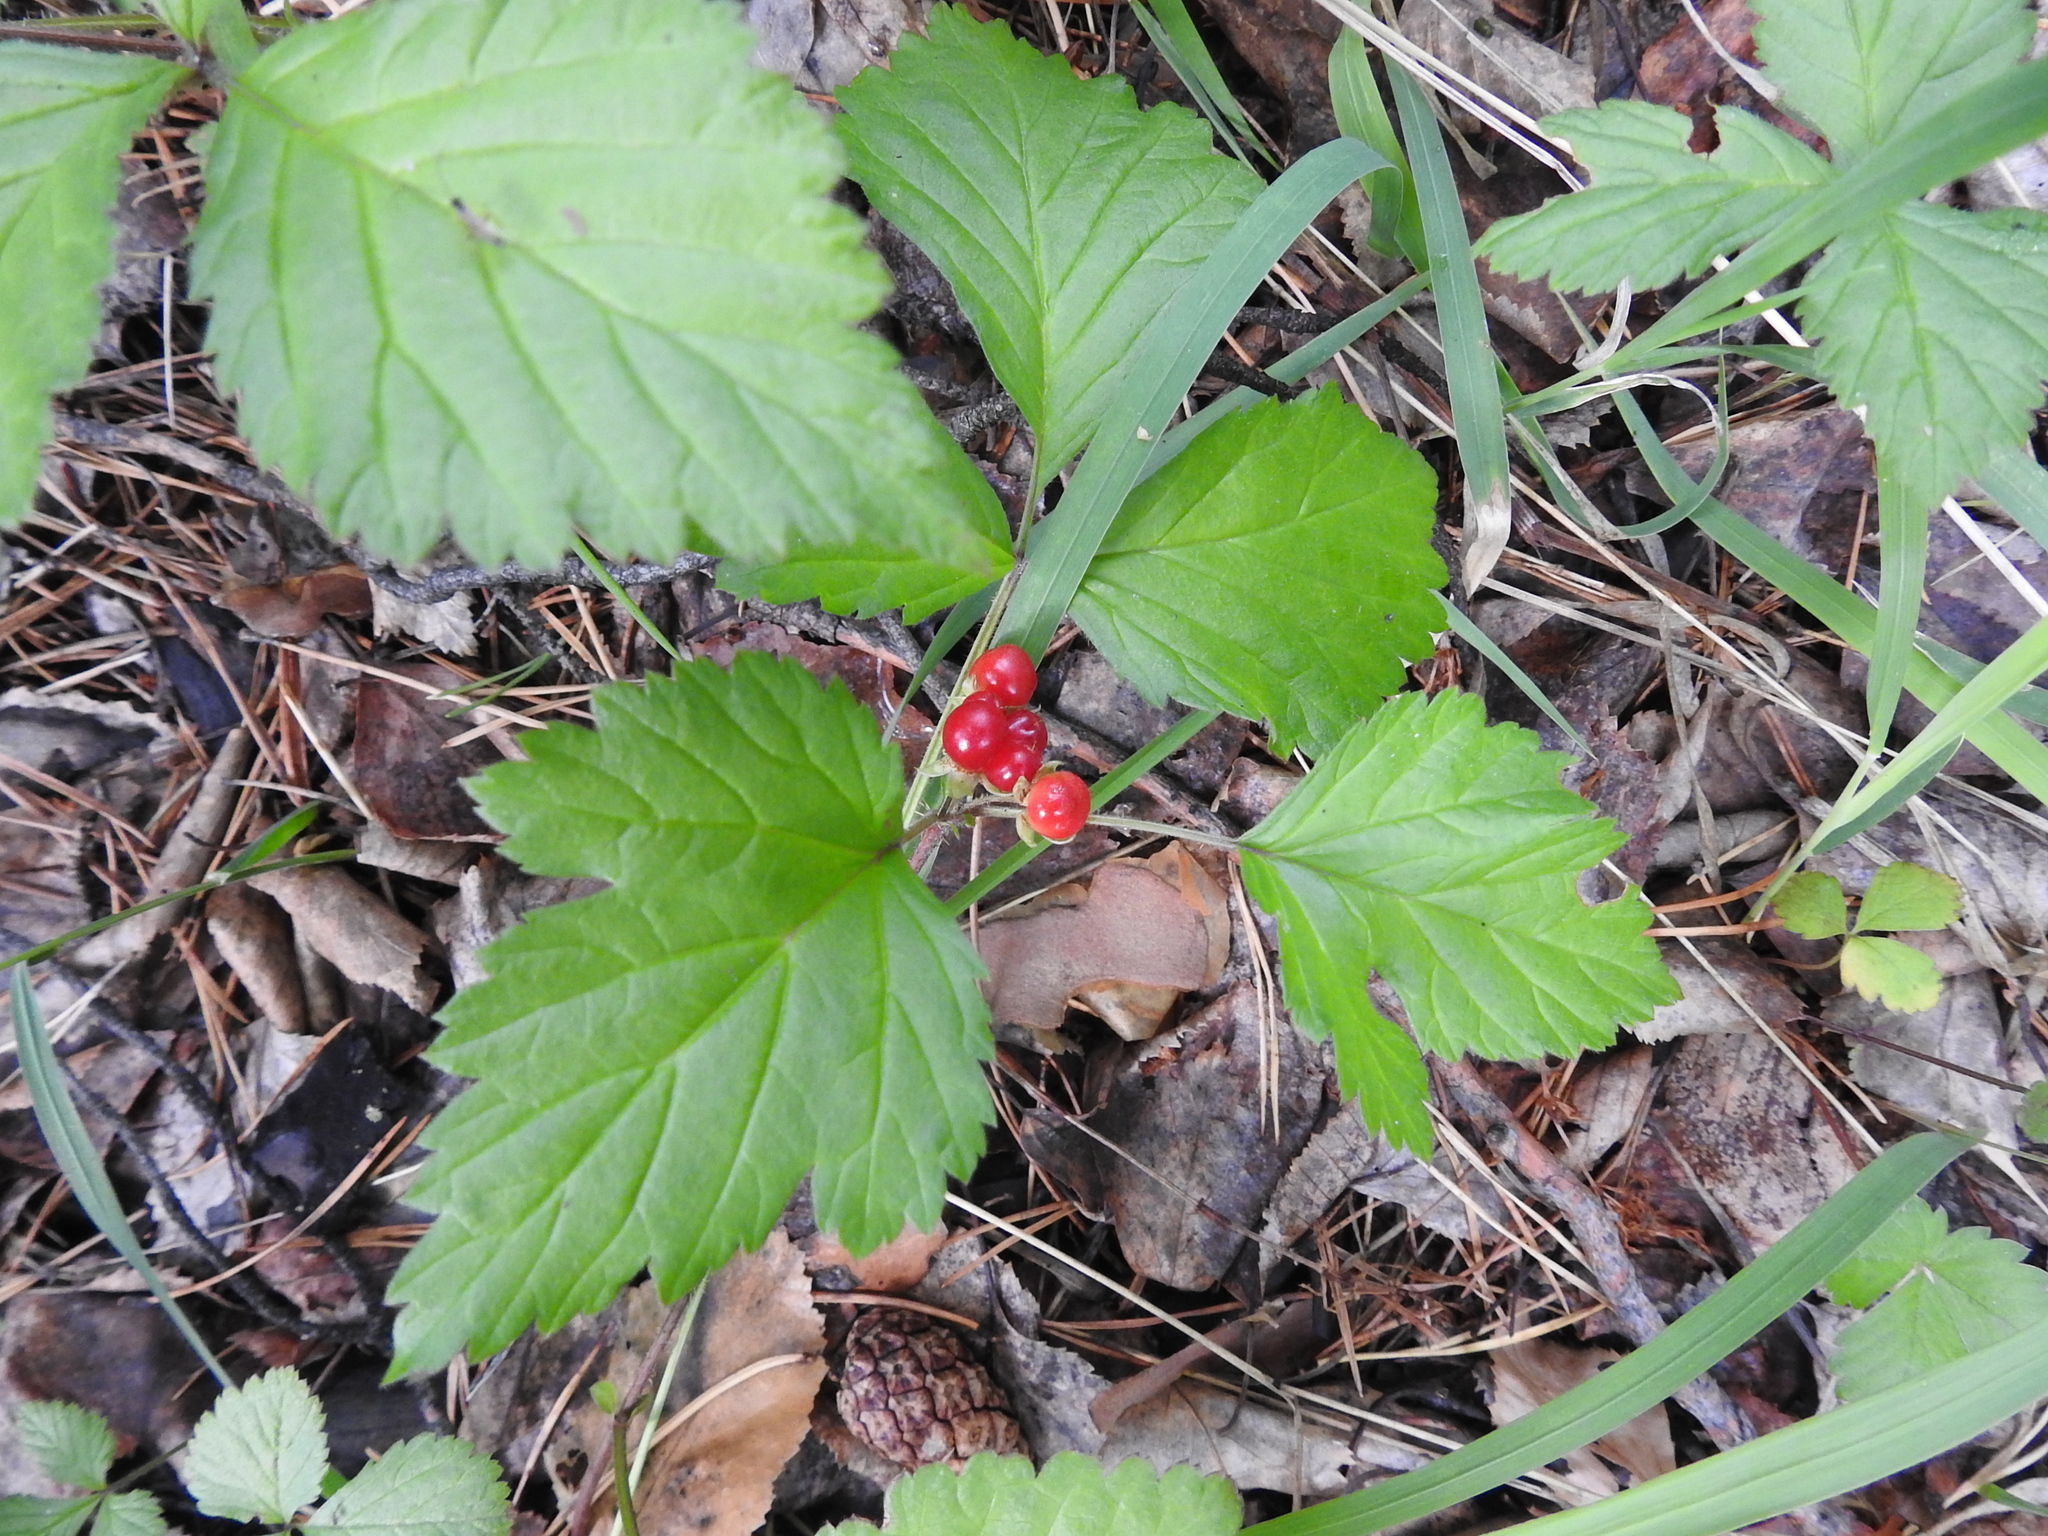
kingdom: Plantae
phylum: Tracheophyta
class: Magnoliopsida
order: Rosales
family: Rosaceae
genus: Rubus
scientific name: Rubus saxatilis
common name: Stone bramble
